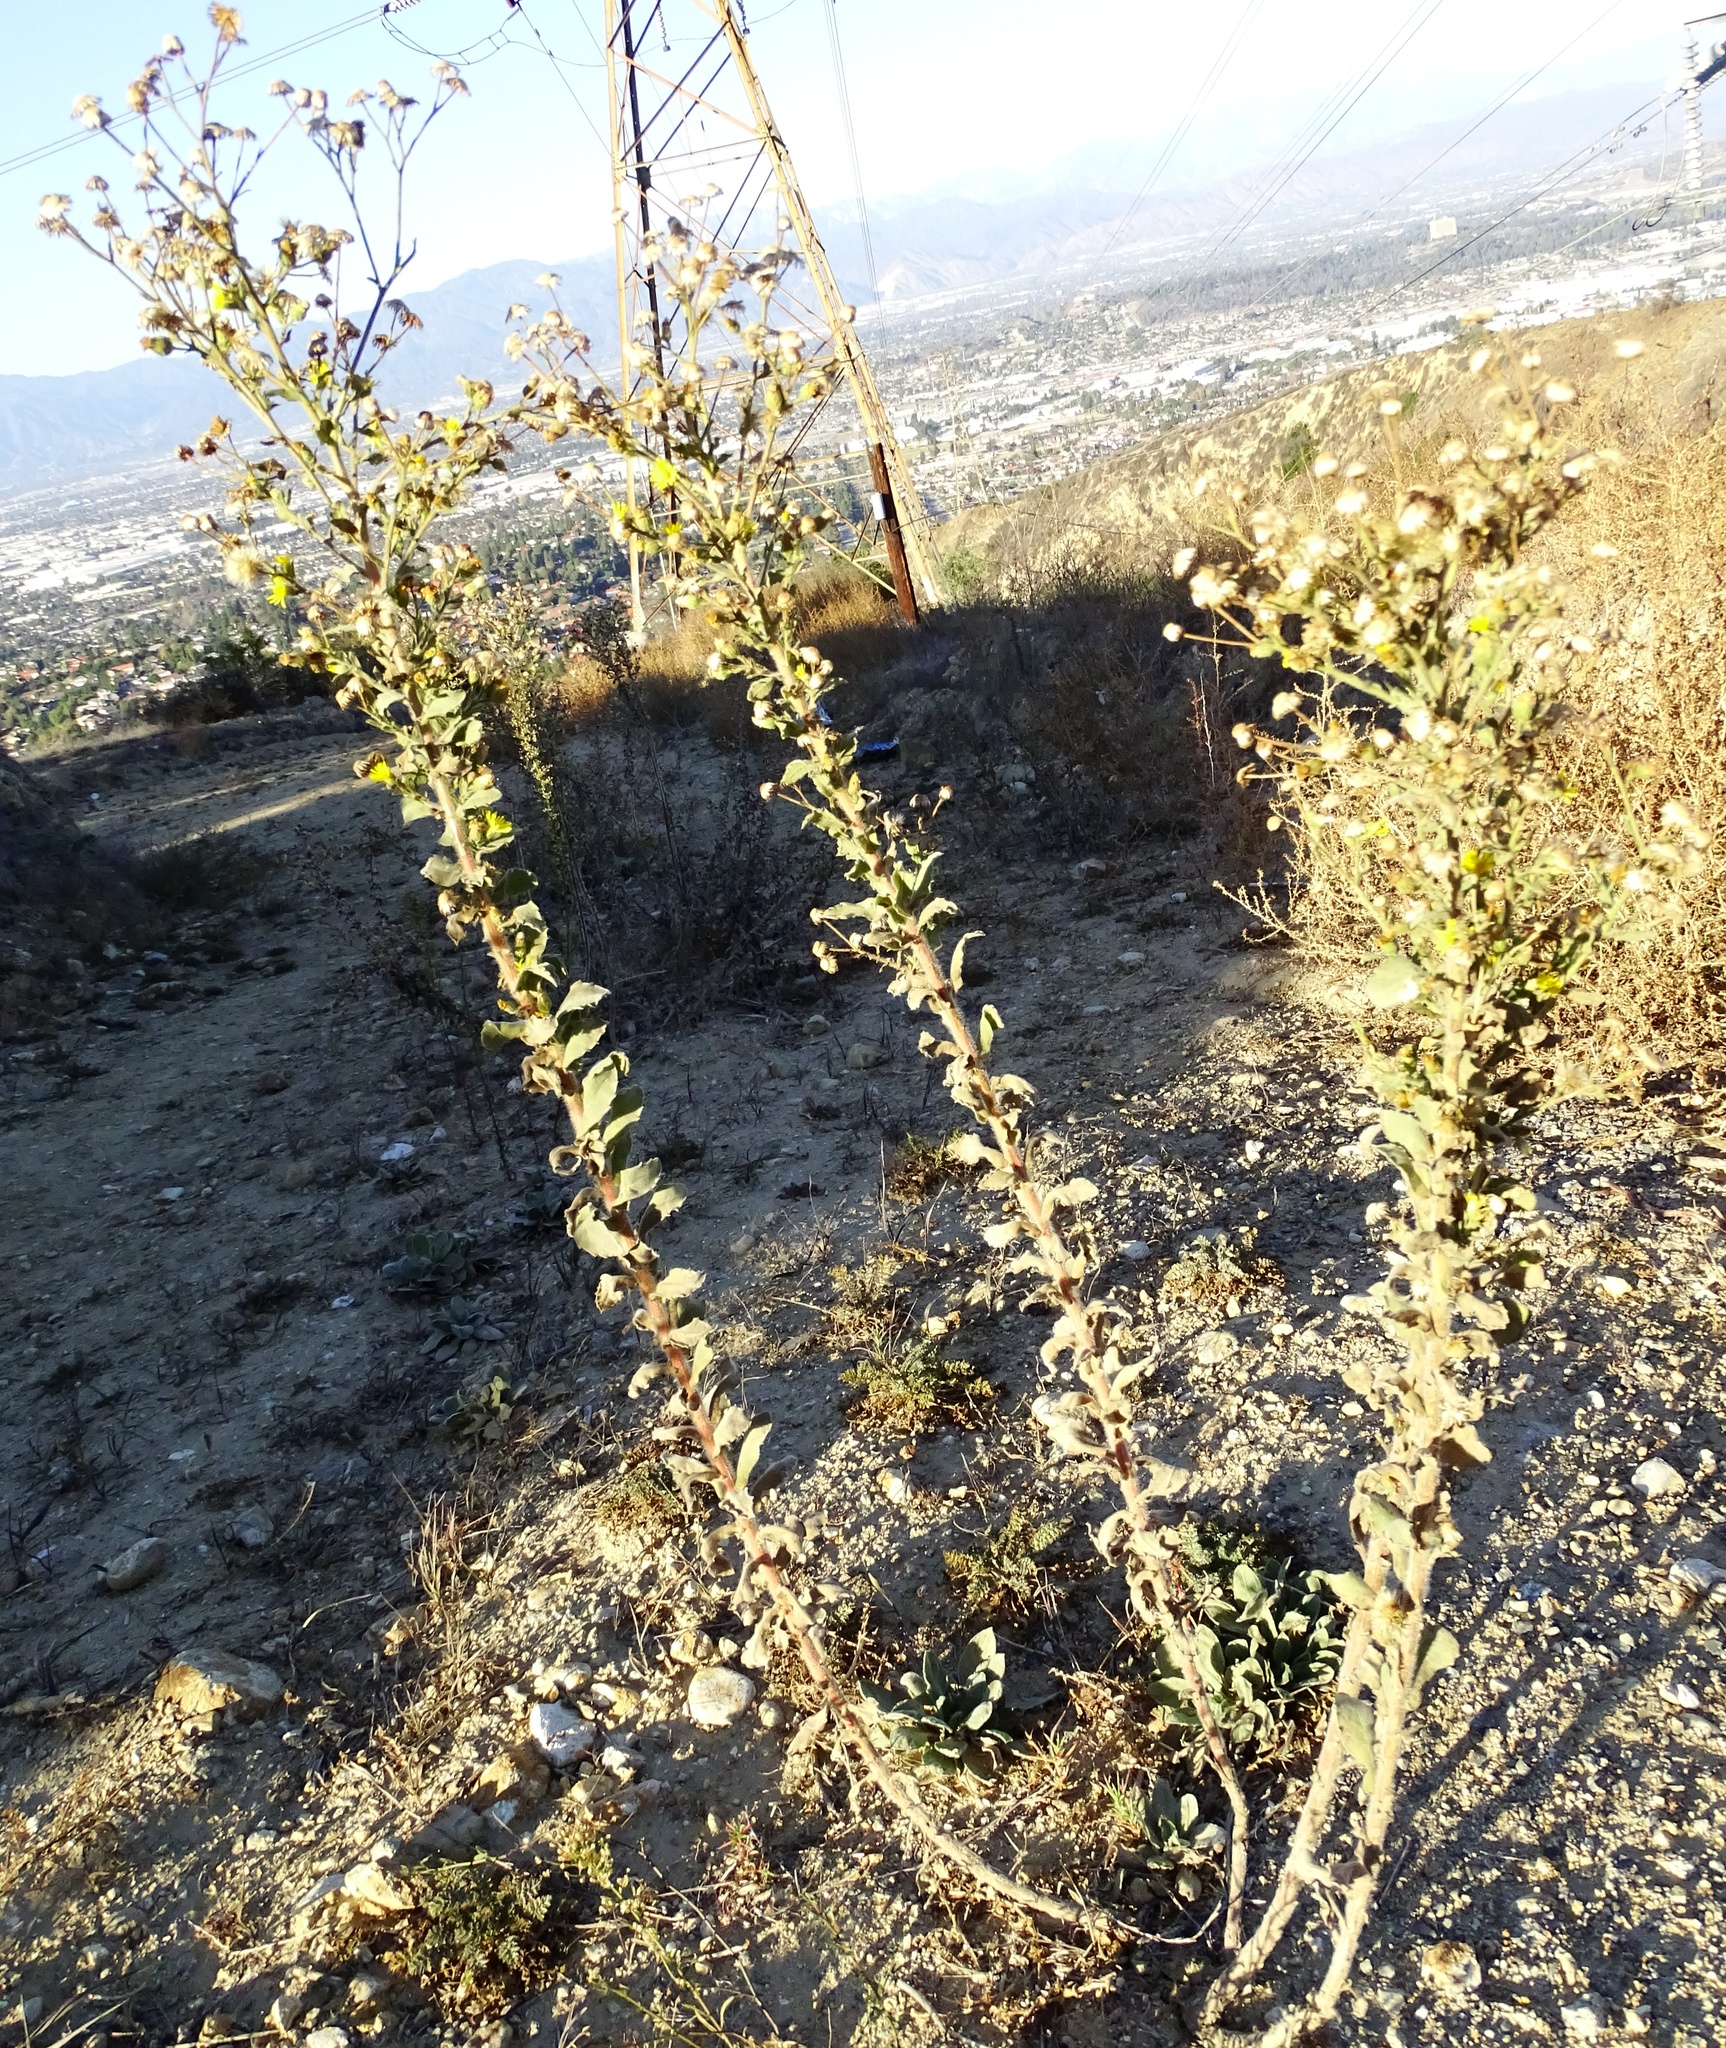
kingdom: Plantae
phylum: Tracheophyta
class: Magnoliopsida
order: Asterales
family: Asteraceae
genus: Heterotheca
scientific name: Heterotheca grandiflora
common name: Telegraphweed
